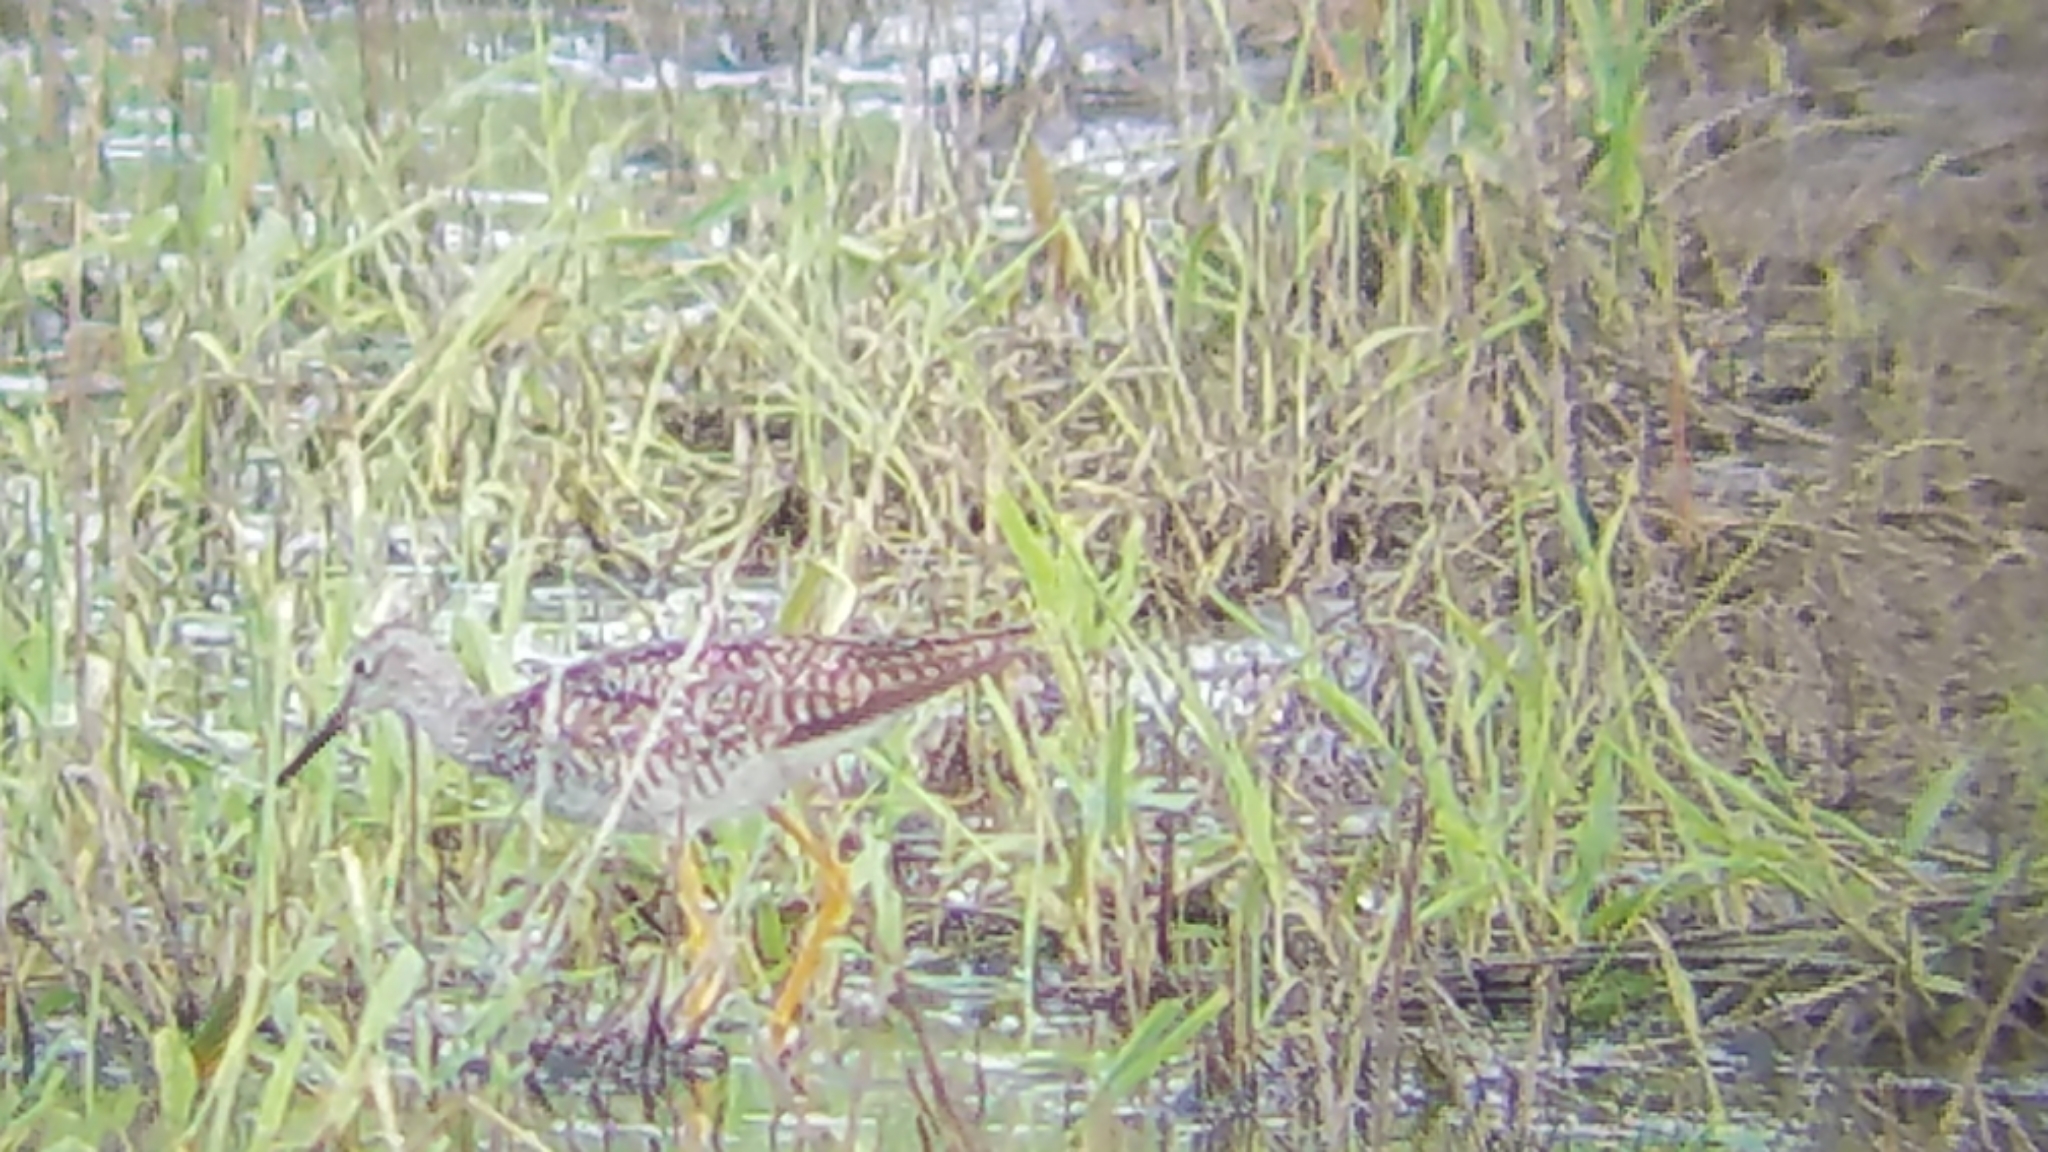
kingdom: Animalia
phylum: Chordata
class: Aves
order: Charadriiformes
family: Scolopacidae
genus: Tringa
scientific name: Tringa melanoleuca
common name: Greater yellowlegs
